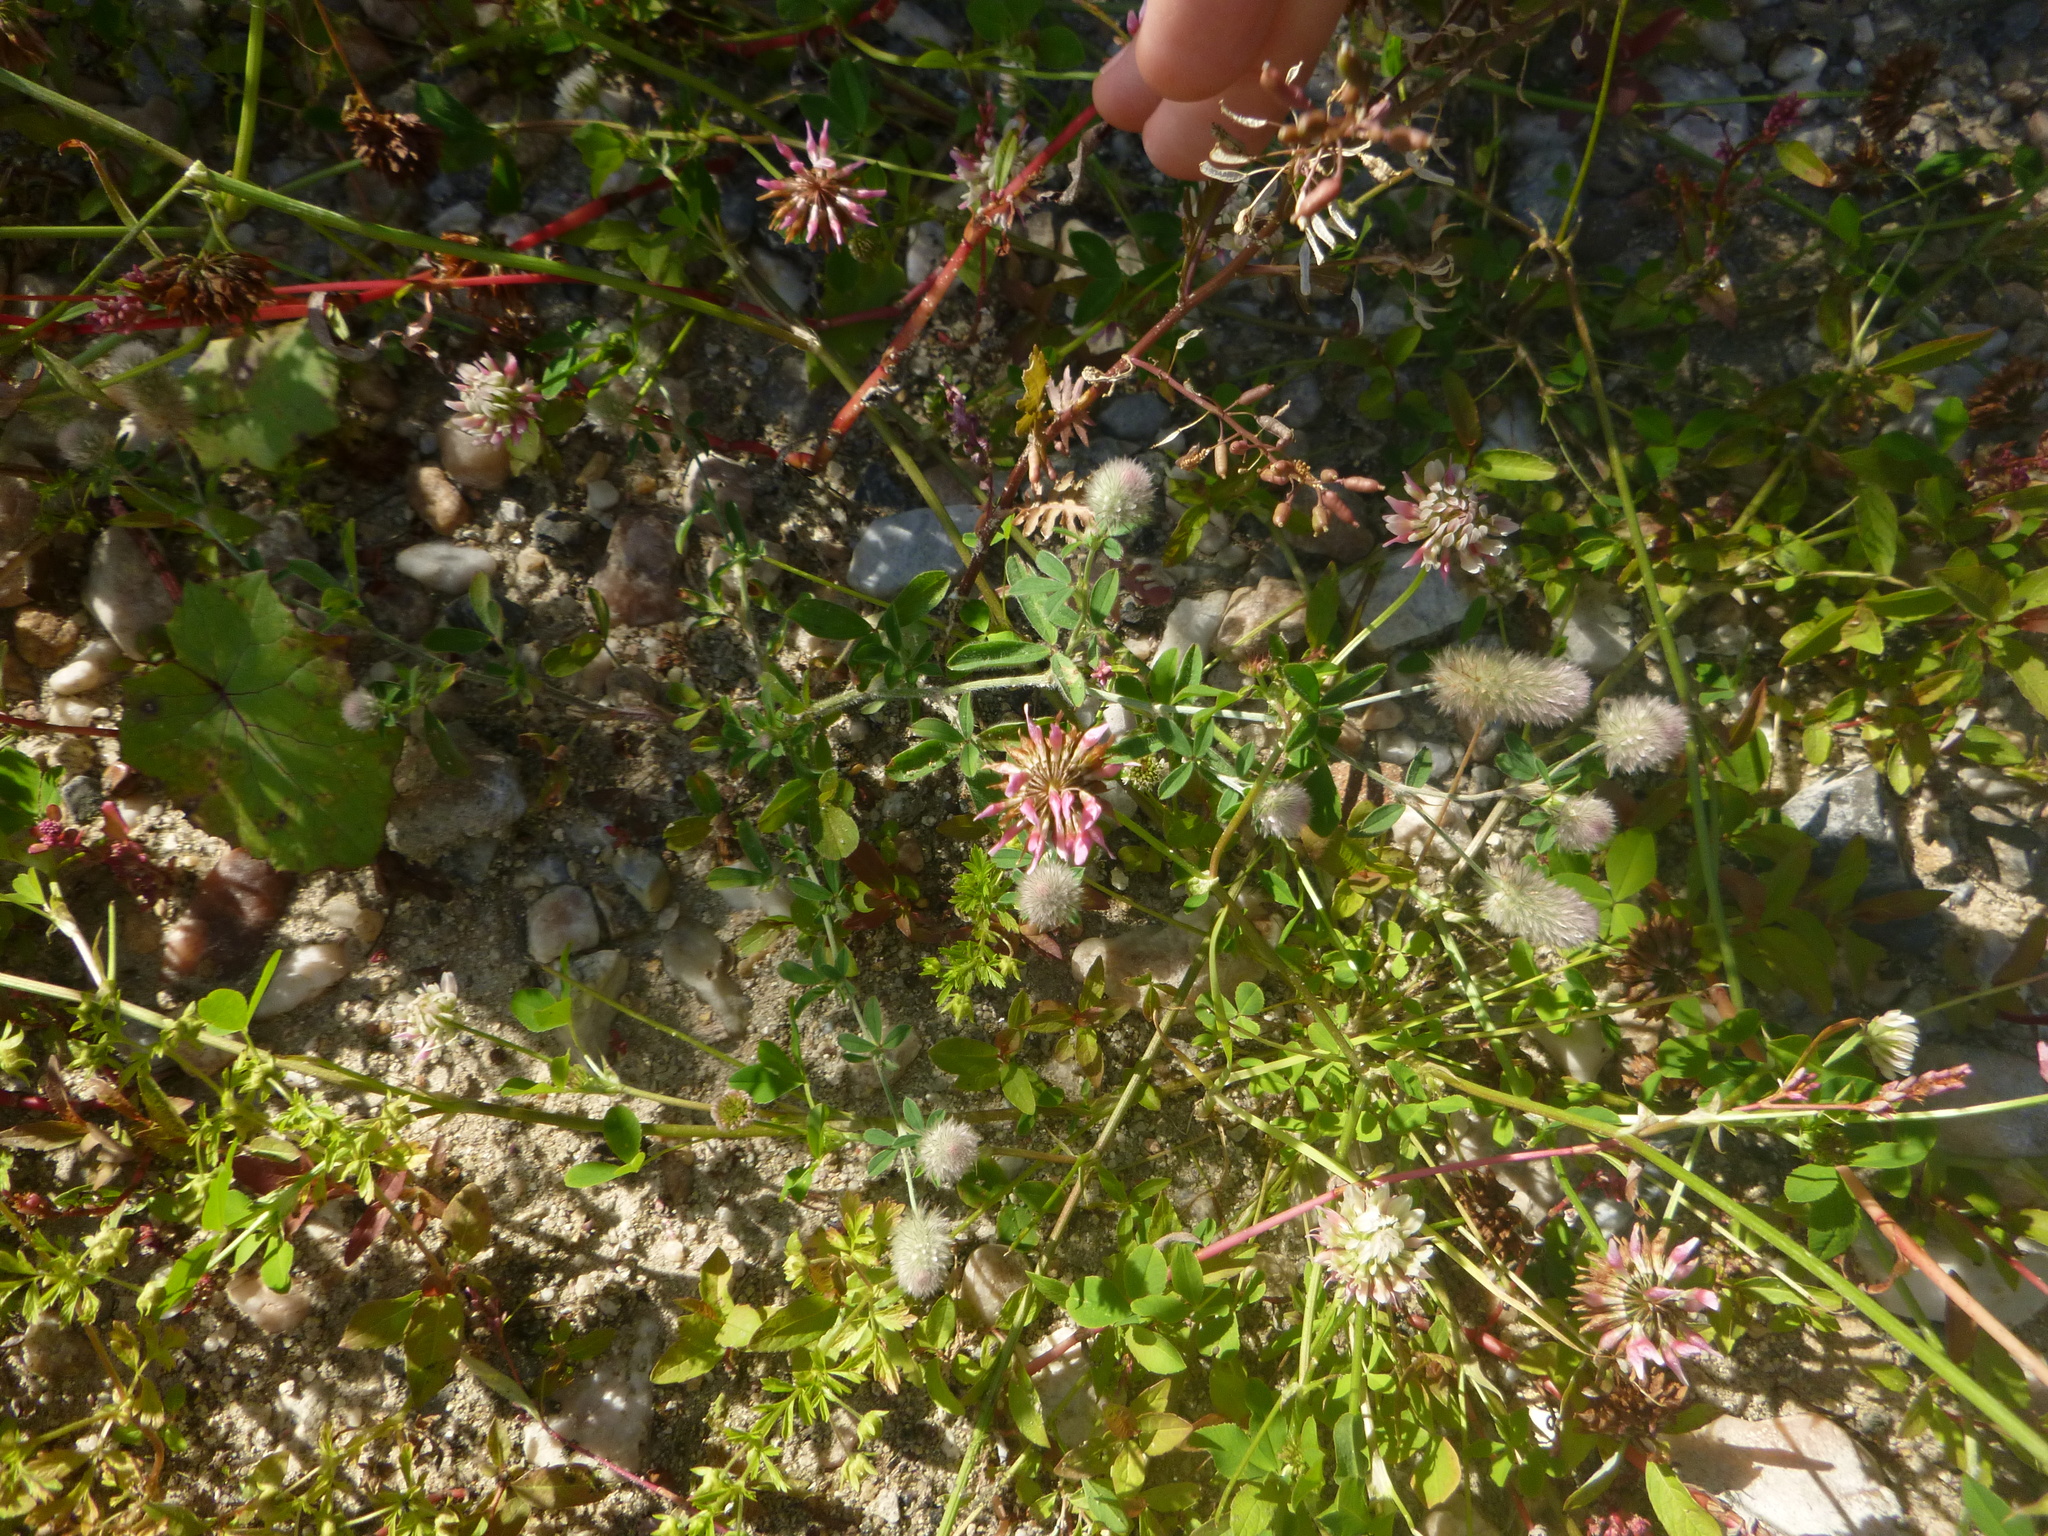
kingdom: Plantae
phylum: Tracheophyta
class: Magnoliopsida
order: Fabales
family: Fabaceae
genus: Trifolium
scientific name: Trifolium arvense
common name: Hare's-foot clover
